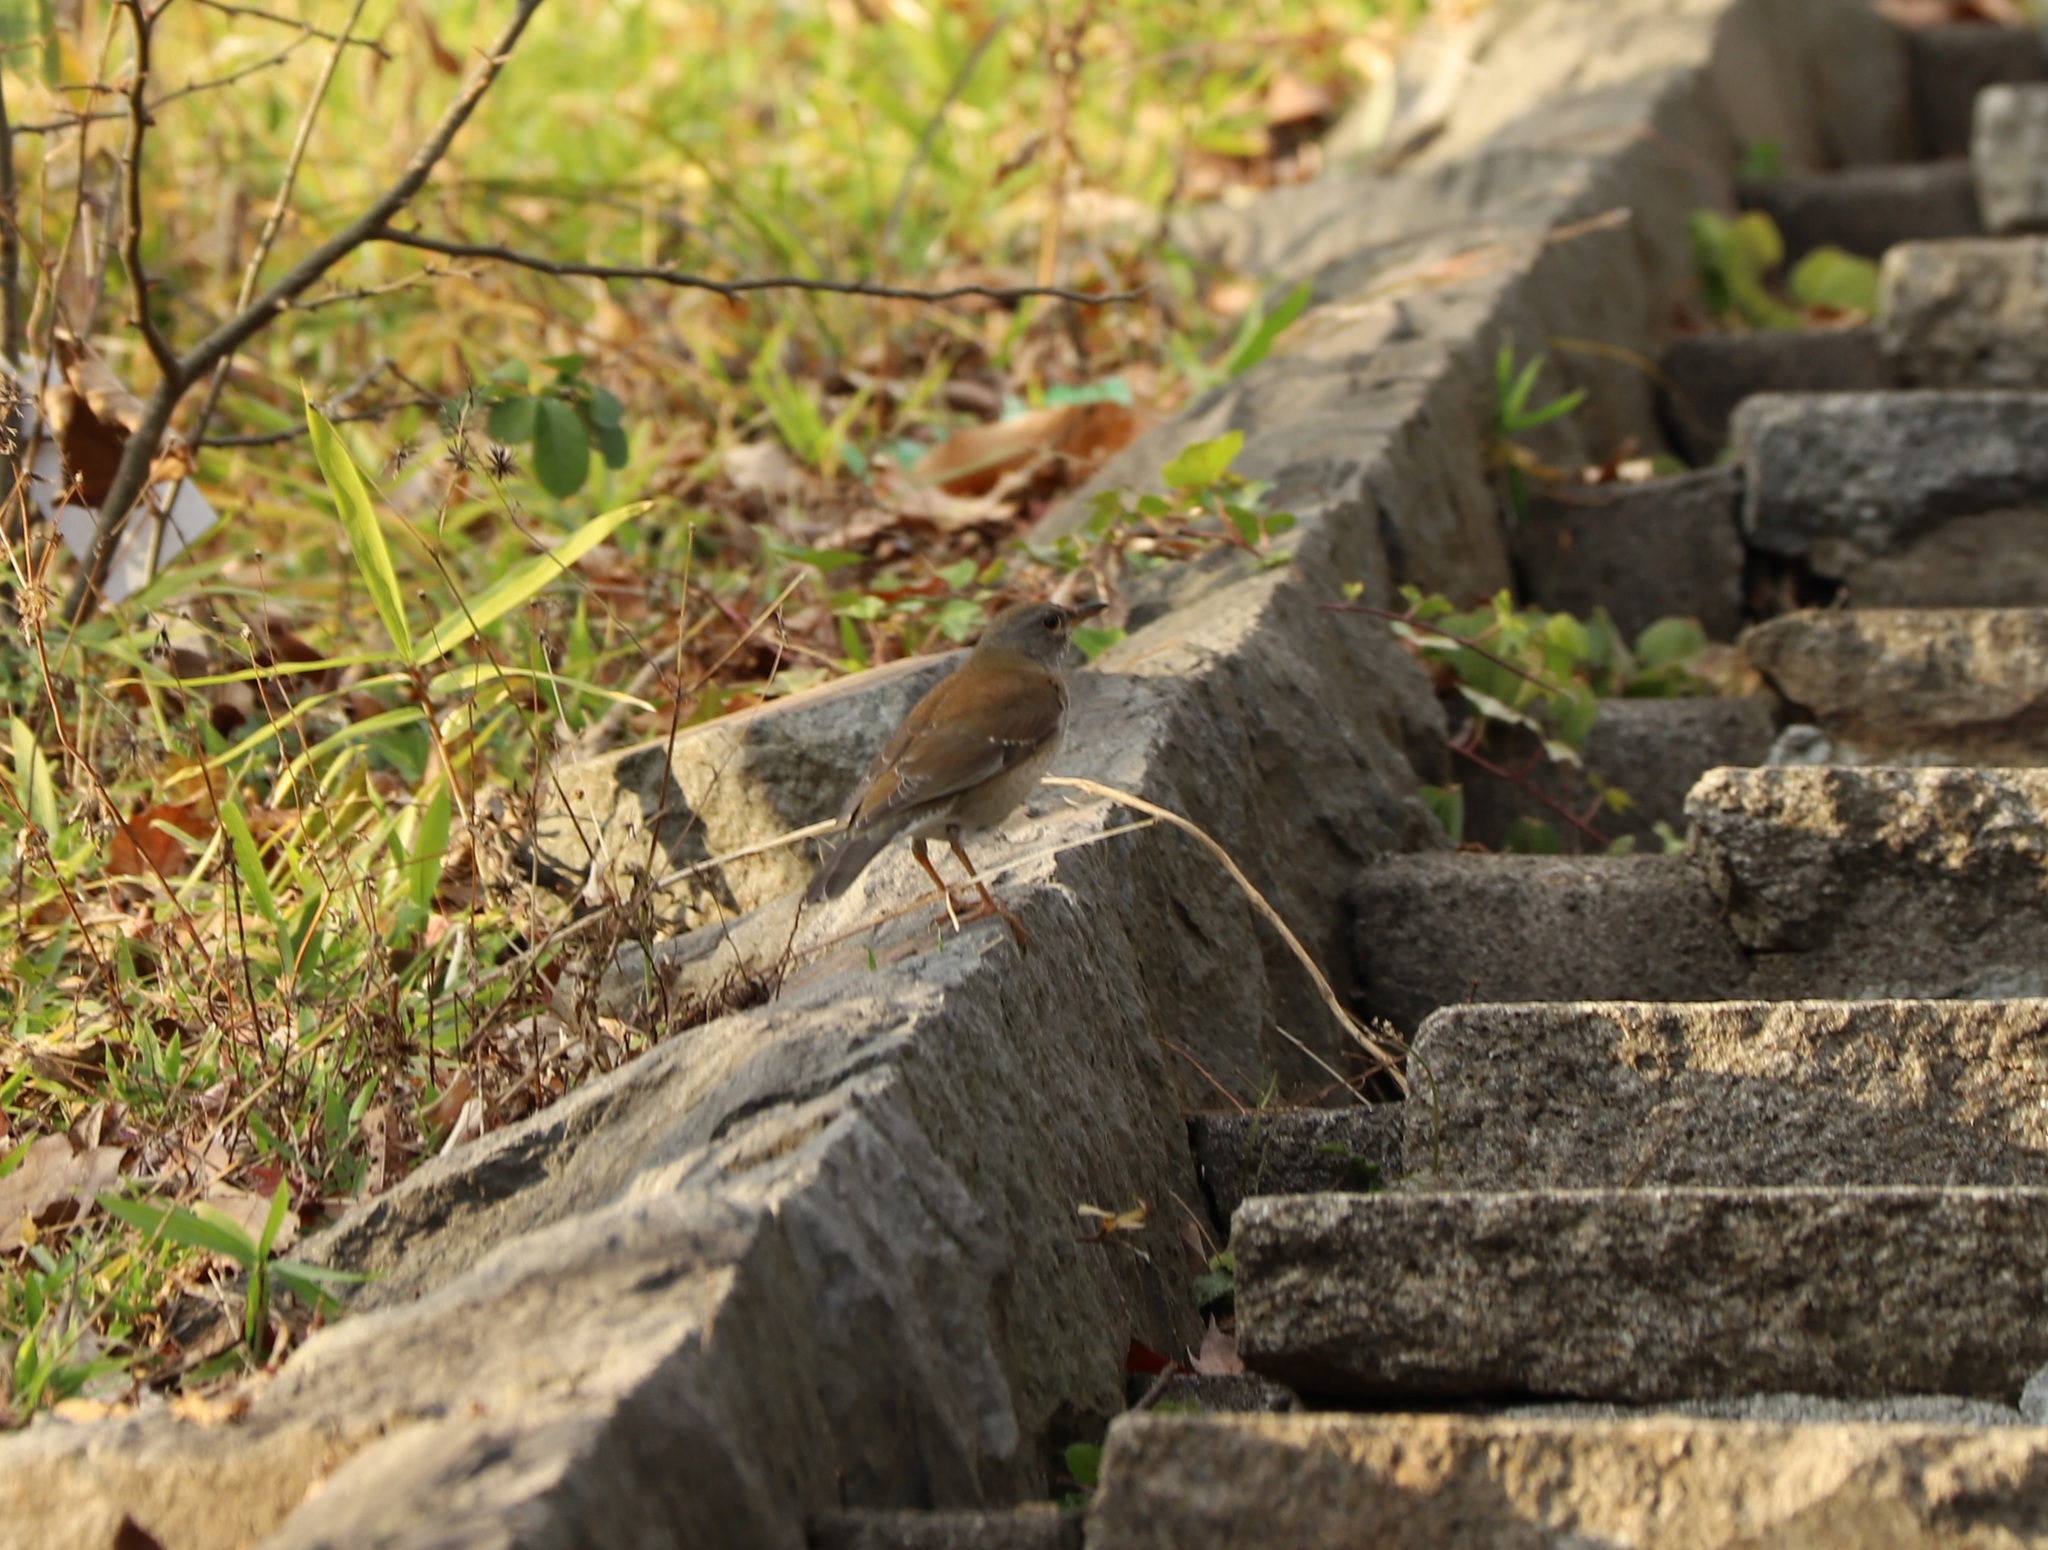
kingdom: Animalia
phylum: Chordata
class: Aves
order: Passeriformes
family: Turdidae
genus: Turdus
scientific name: Turdus pallidus
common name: Pale thrush
